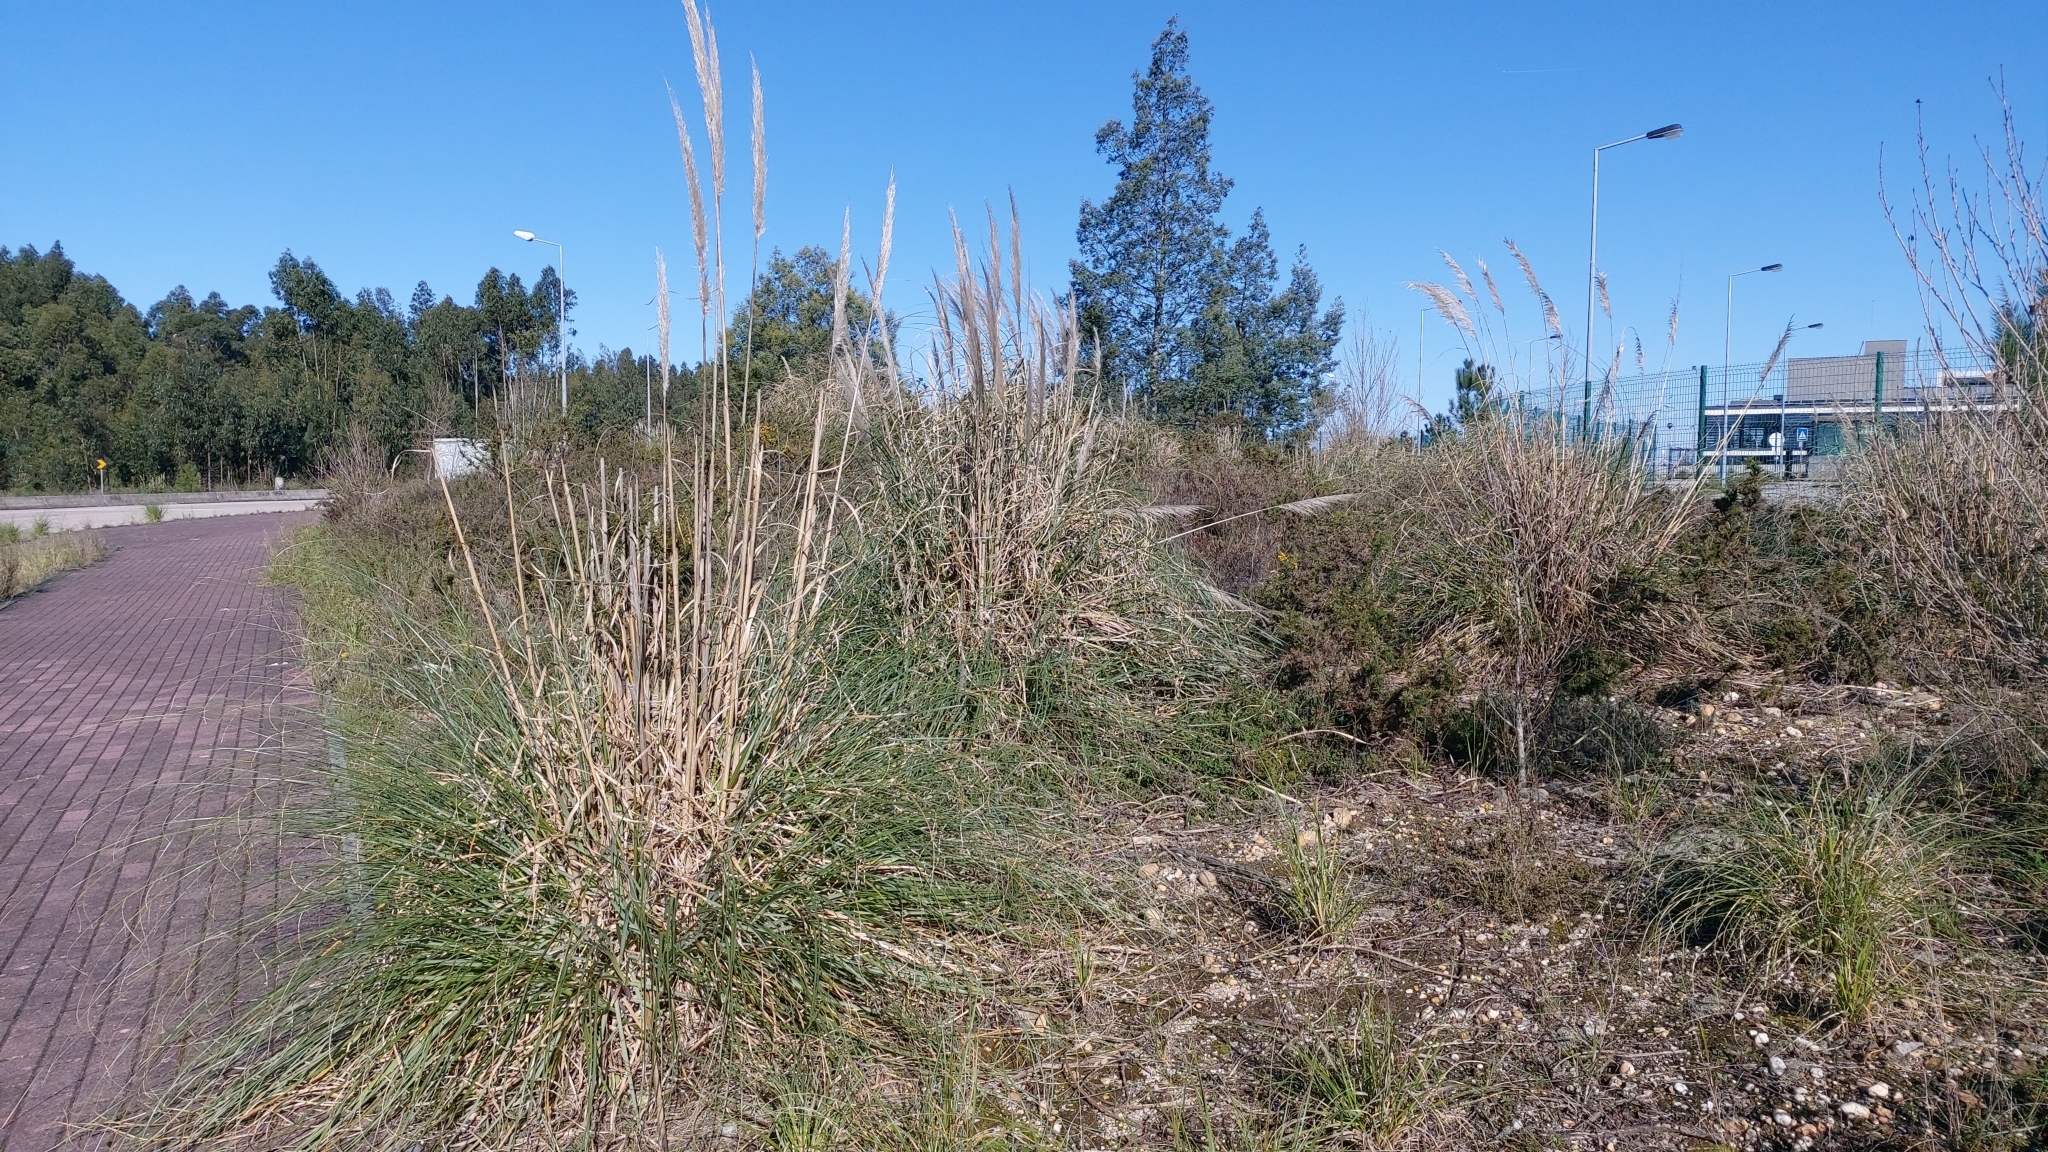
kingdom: Plantae
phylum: Tracheophyta
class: Liliopsida
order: Poales
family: Poaceae
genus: Cortaderia
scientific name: Cortaderia selloana
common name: Uruguayan pampas grass
